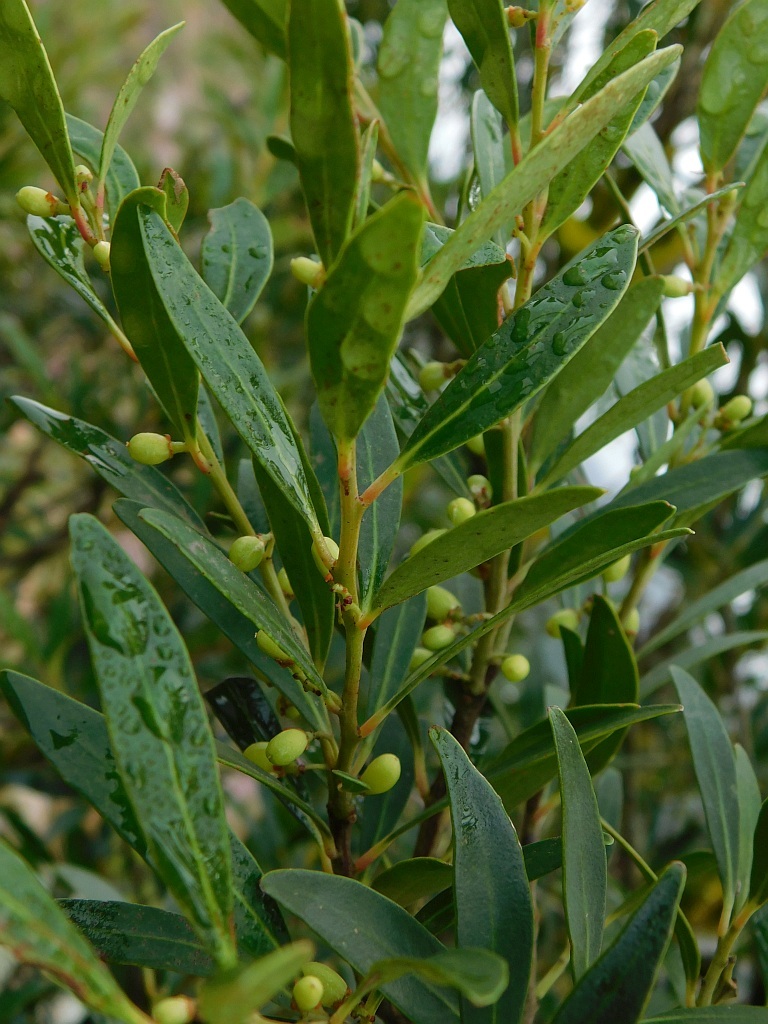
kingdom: Plantae
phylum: Tracheophyta
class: Magnoliopsida
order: Celastrales
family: Celastraceae
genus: Gymnosporia
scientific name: Gymnosporia laurina
